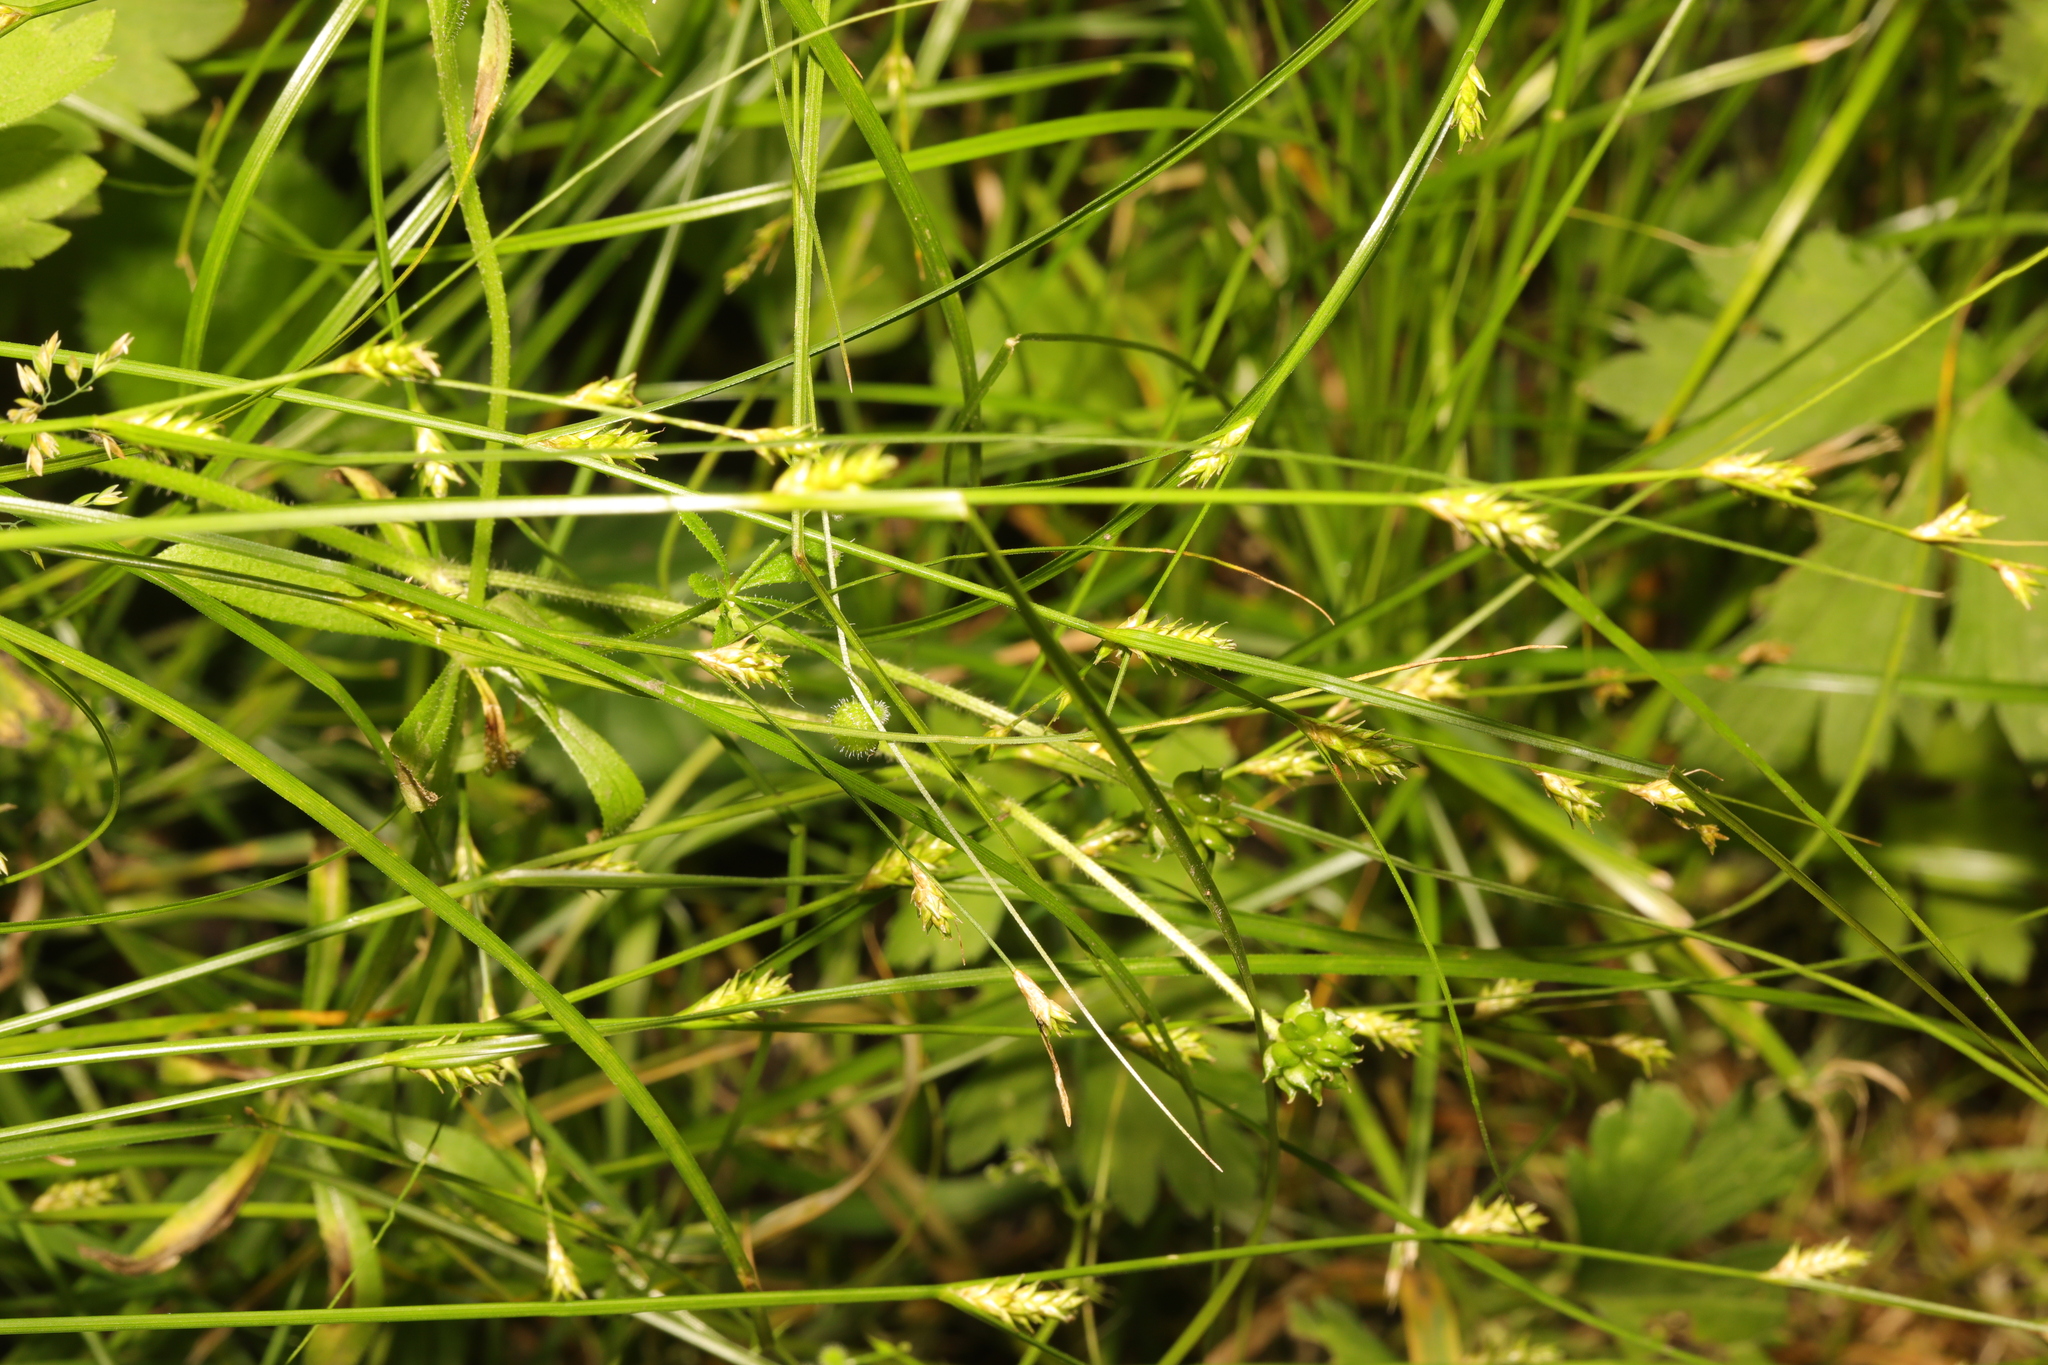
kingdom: Plantae
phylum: Tracheophyta
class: Liliopsida
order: Poales
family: Cyperaceae
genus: Carex
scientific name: Carex remota
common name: Remote sedge
